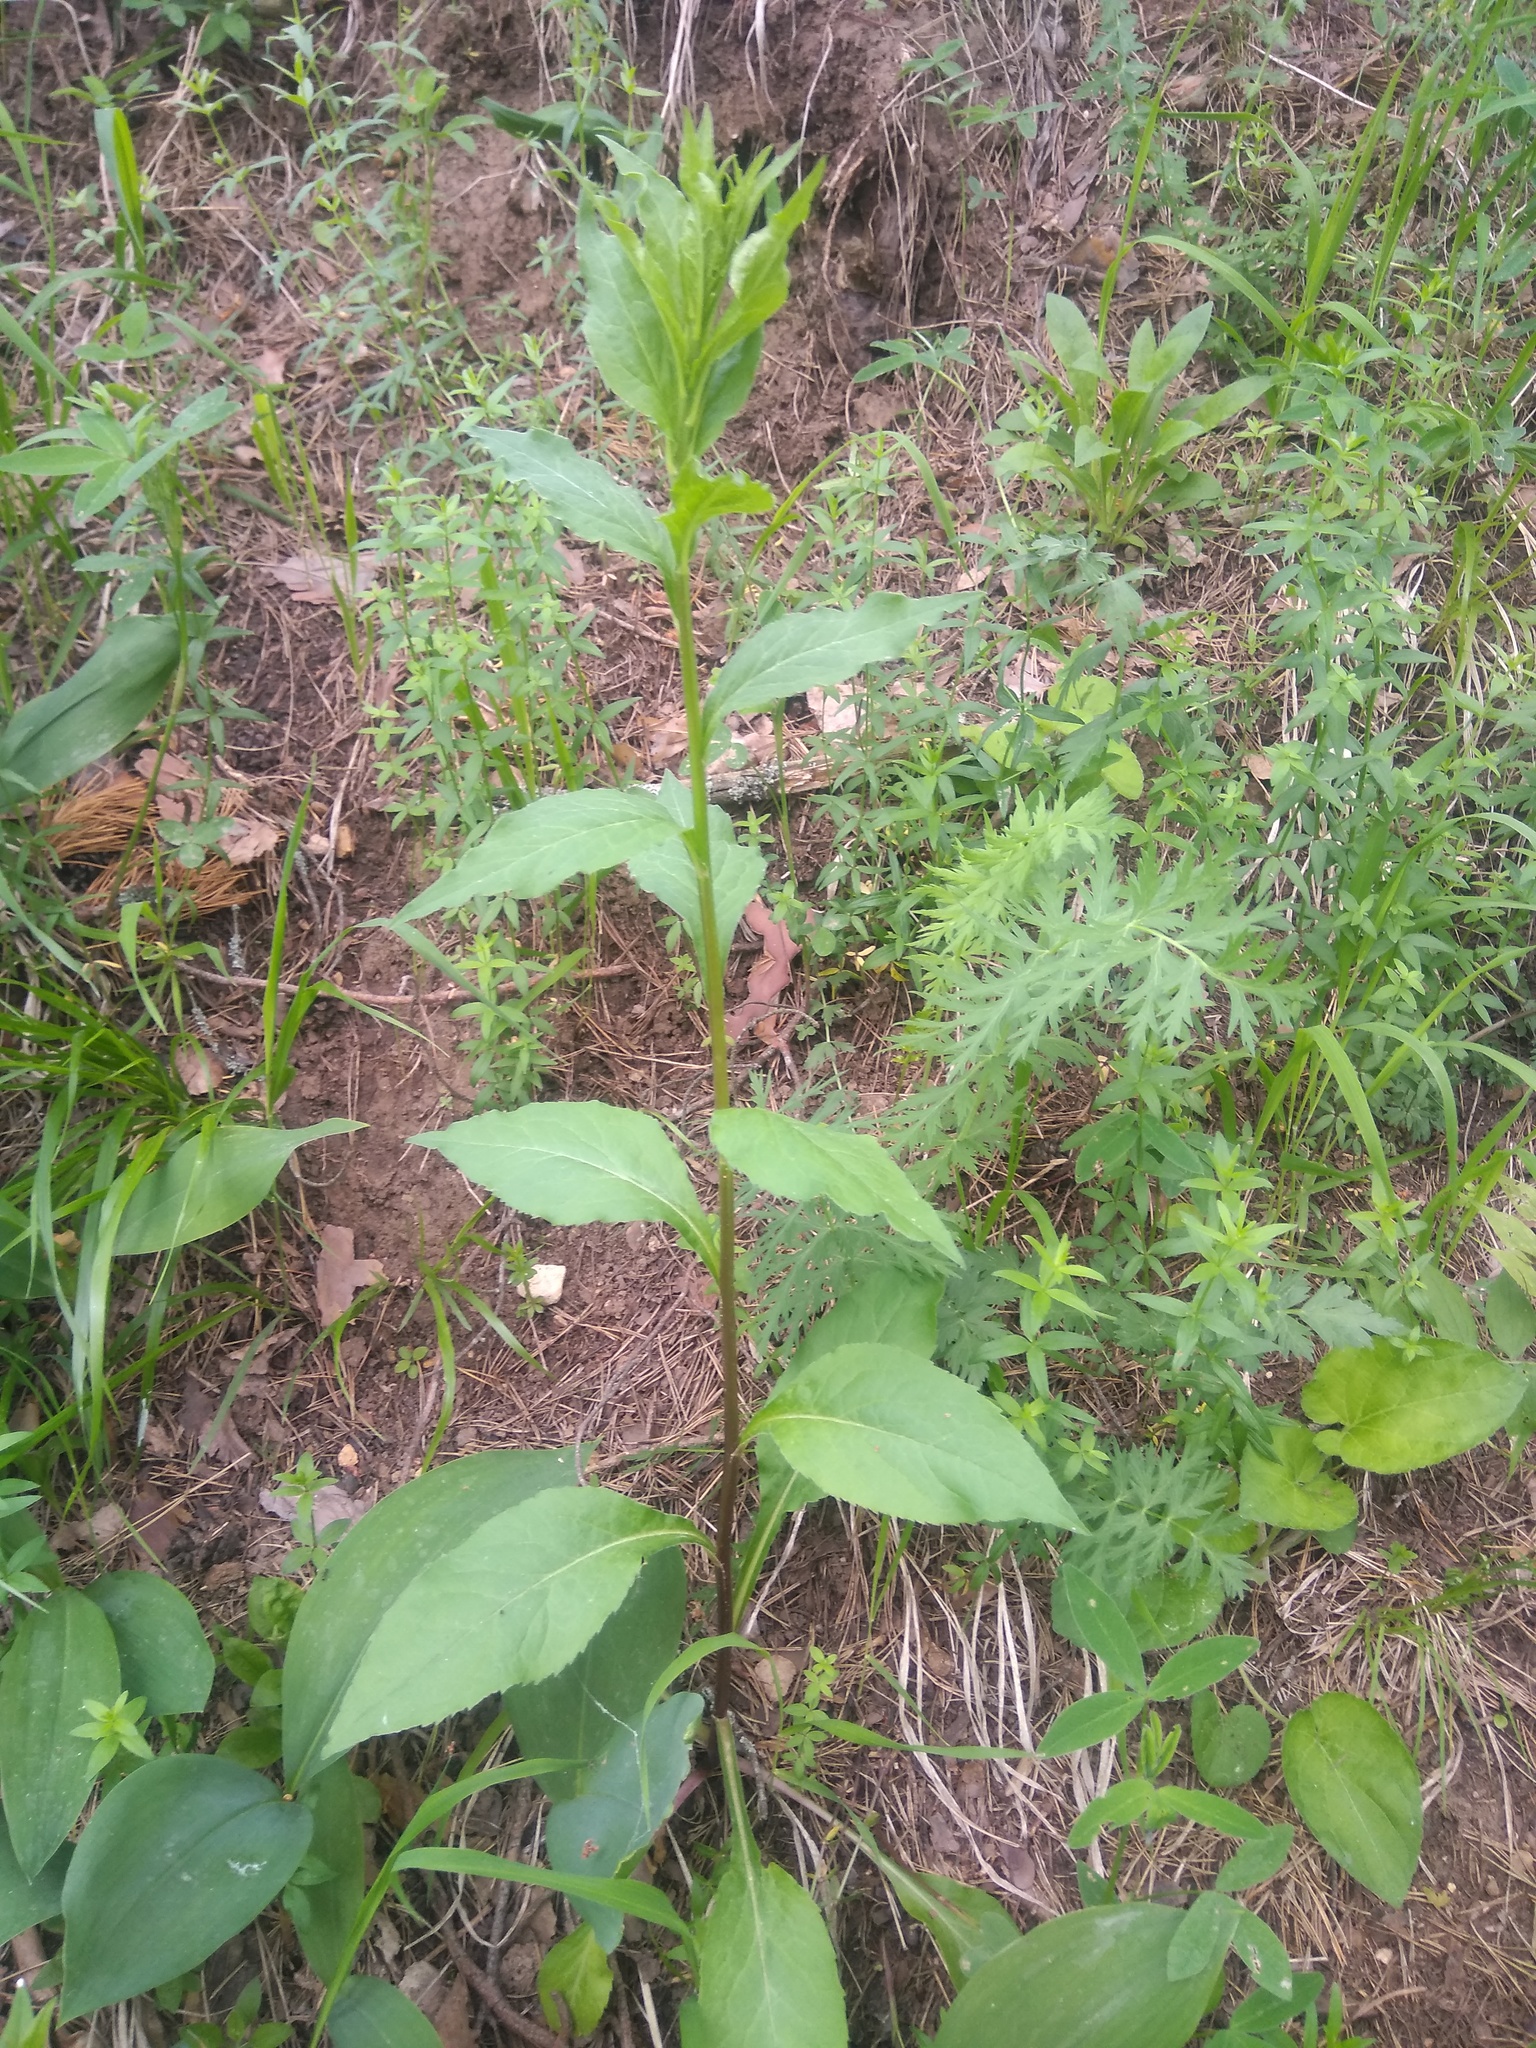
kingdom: Plantae
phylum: Tracheophyta
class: Magnoliopsida
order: Asterales
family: Asteraceae
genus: Solidago
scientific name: Solidago virgaurea
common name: Goldenrod
